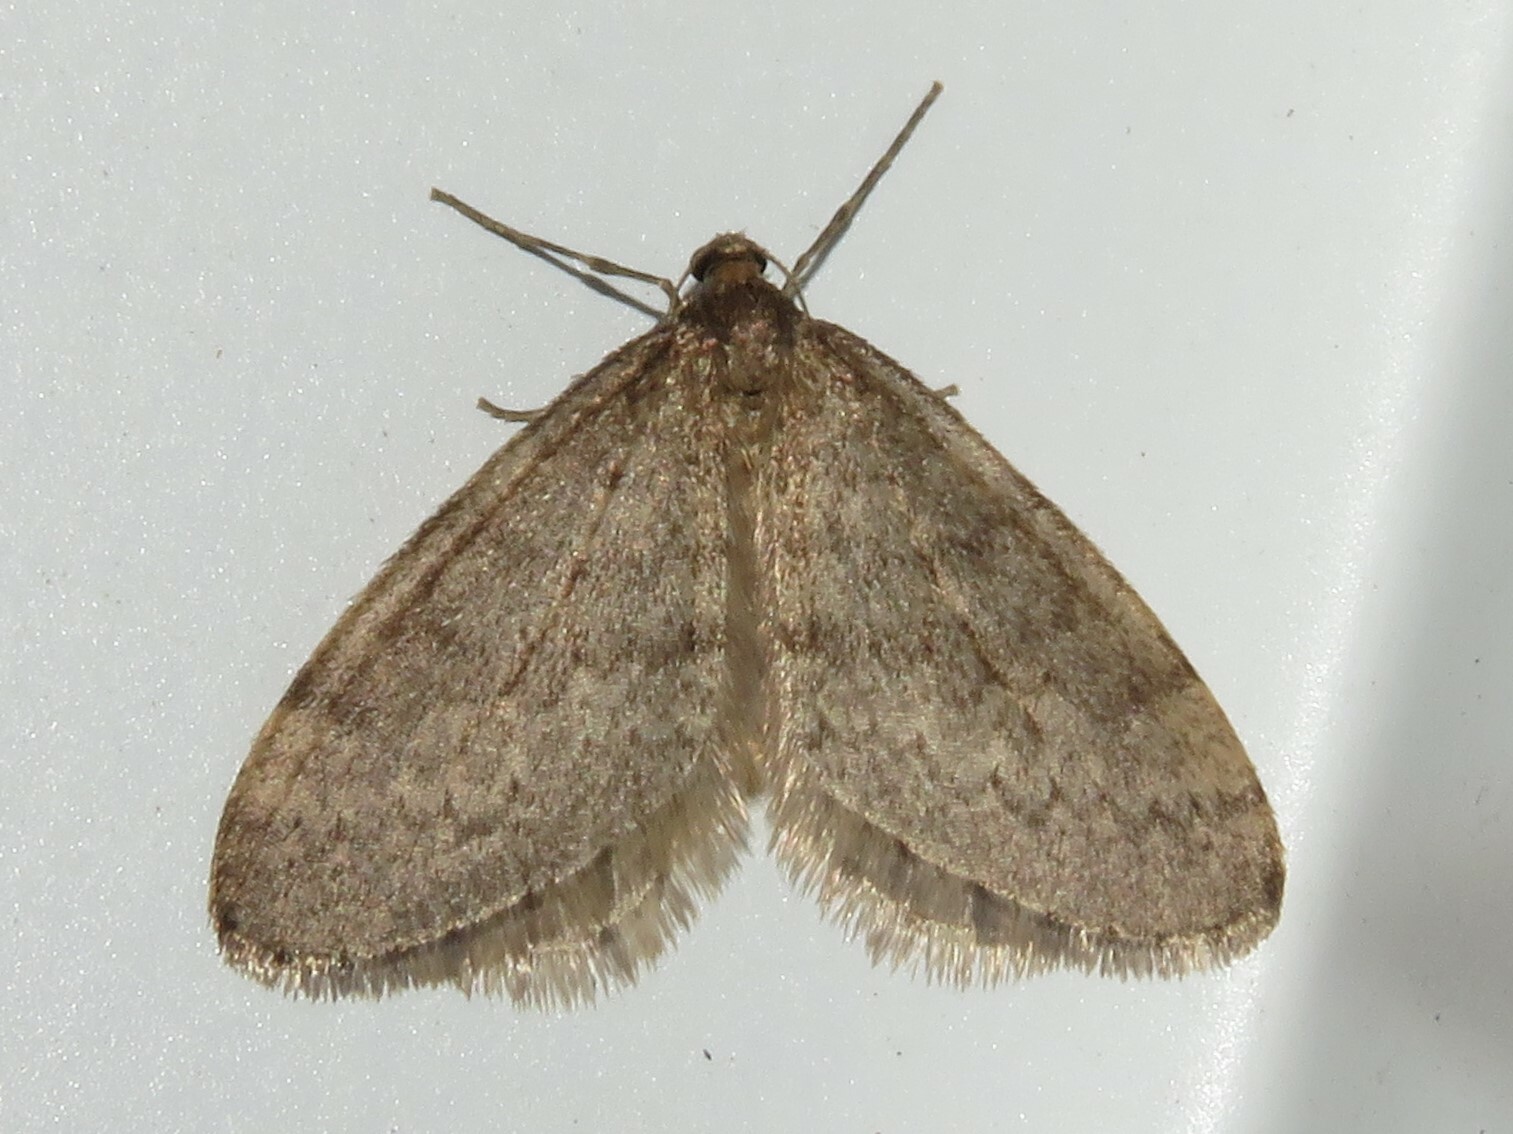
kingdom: Animalia
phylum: Arthropoda
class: Insecta
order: Lepidoptera
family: Geometridae
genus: Operophtera
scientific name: Operophtera bruceata
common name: Bruce spanworm
